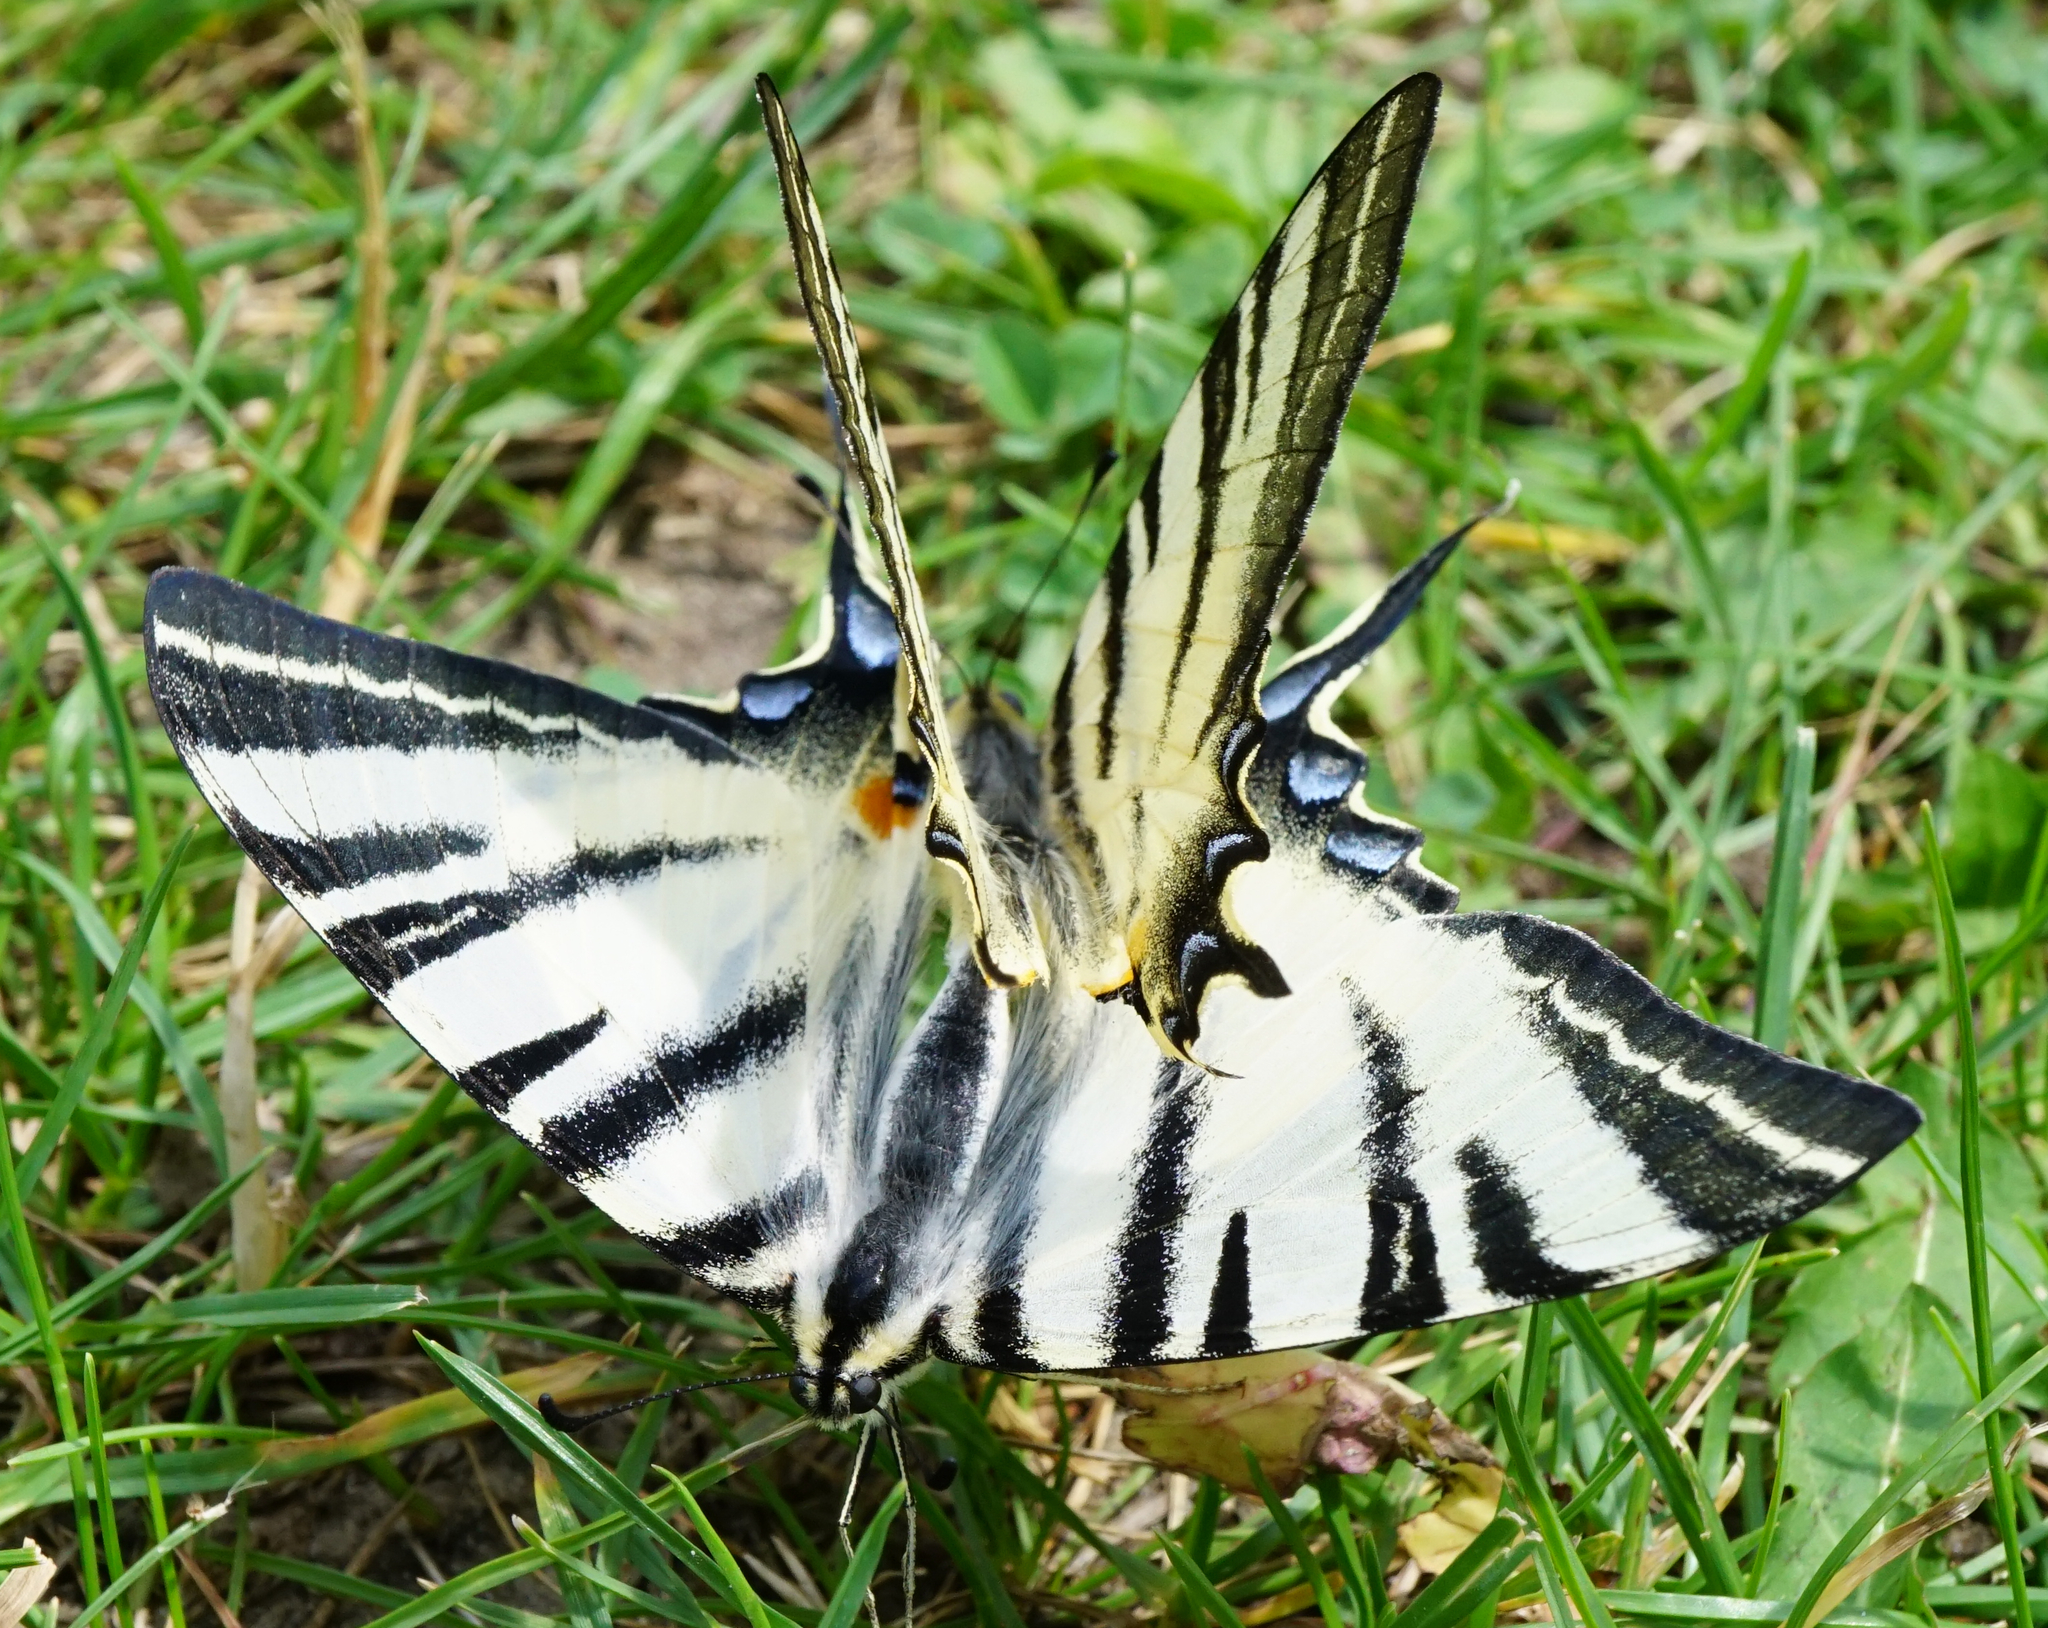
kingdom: Animalia
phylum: Arthropoda
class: Insecta
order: Lepidoptera
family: Papilionidae
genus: Iphiclides
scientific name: Iphiclides podalirius
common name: Scarce swallowtail
